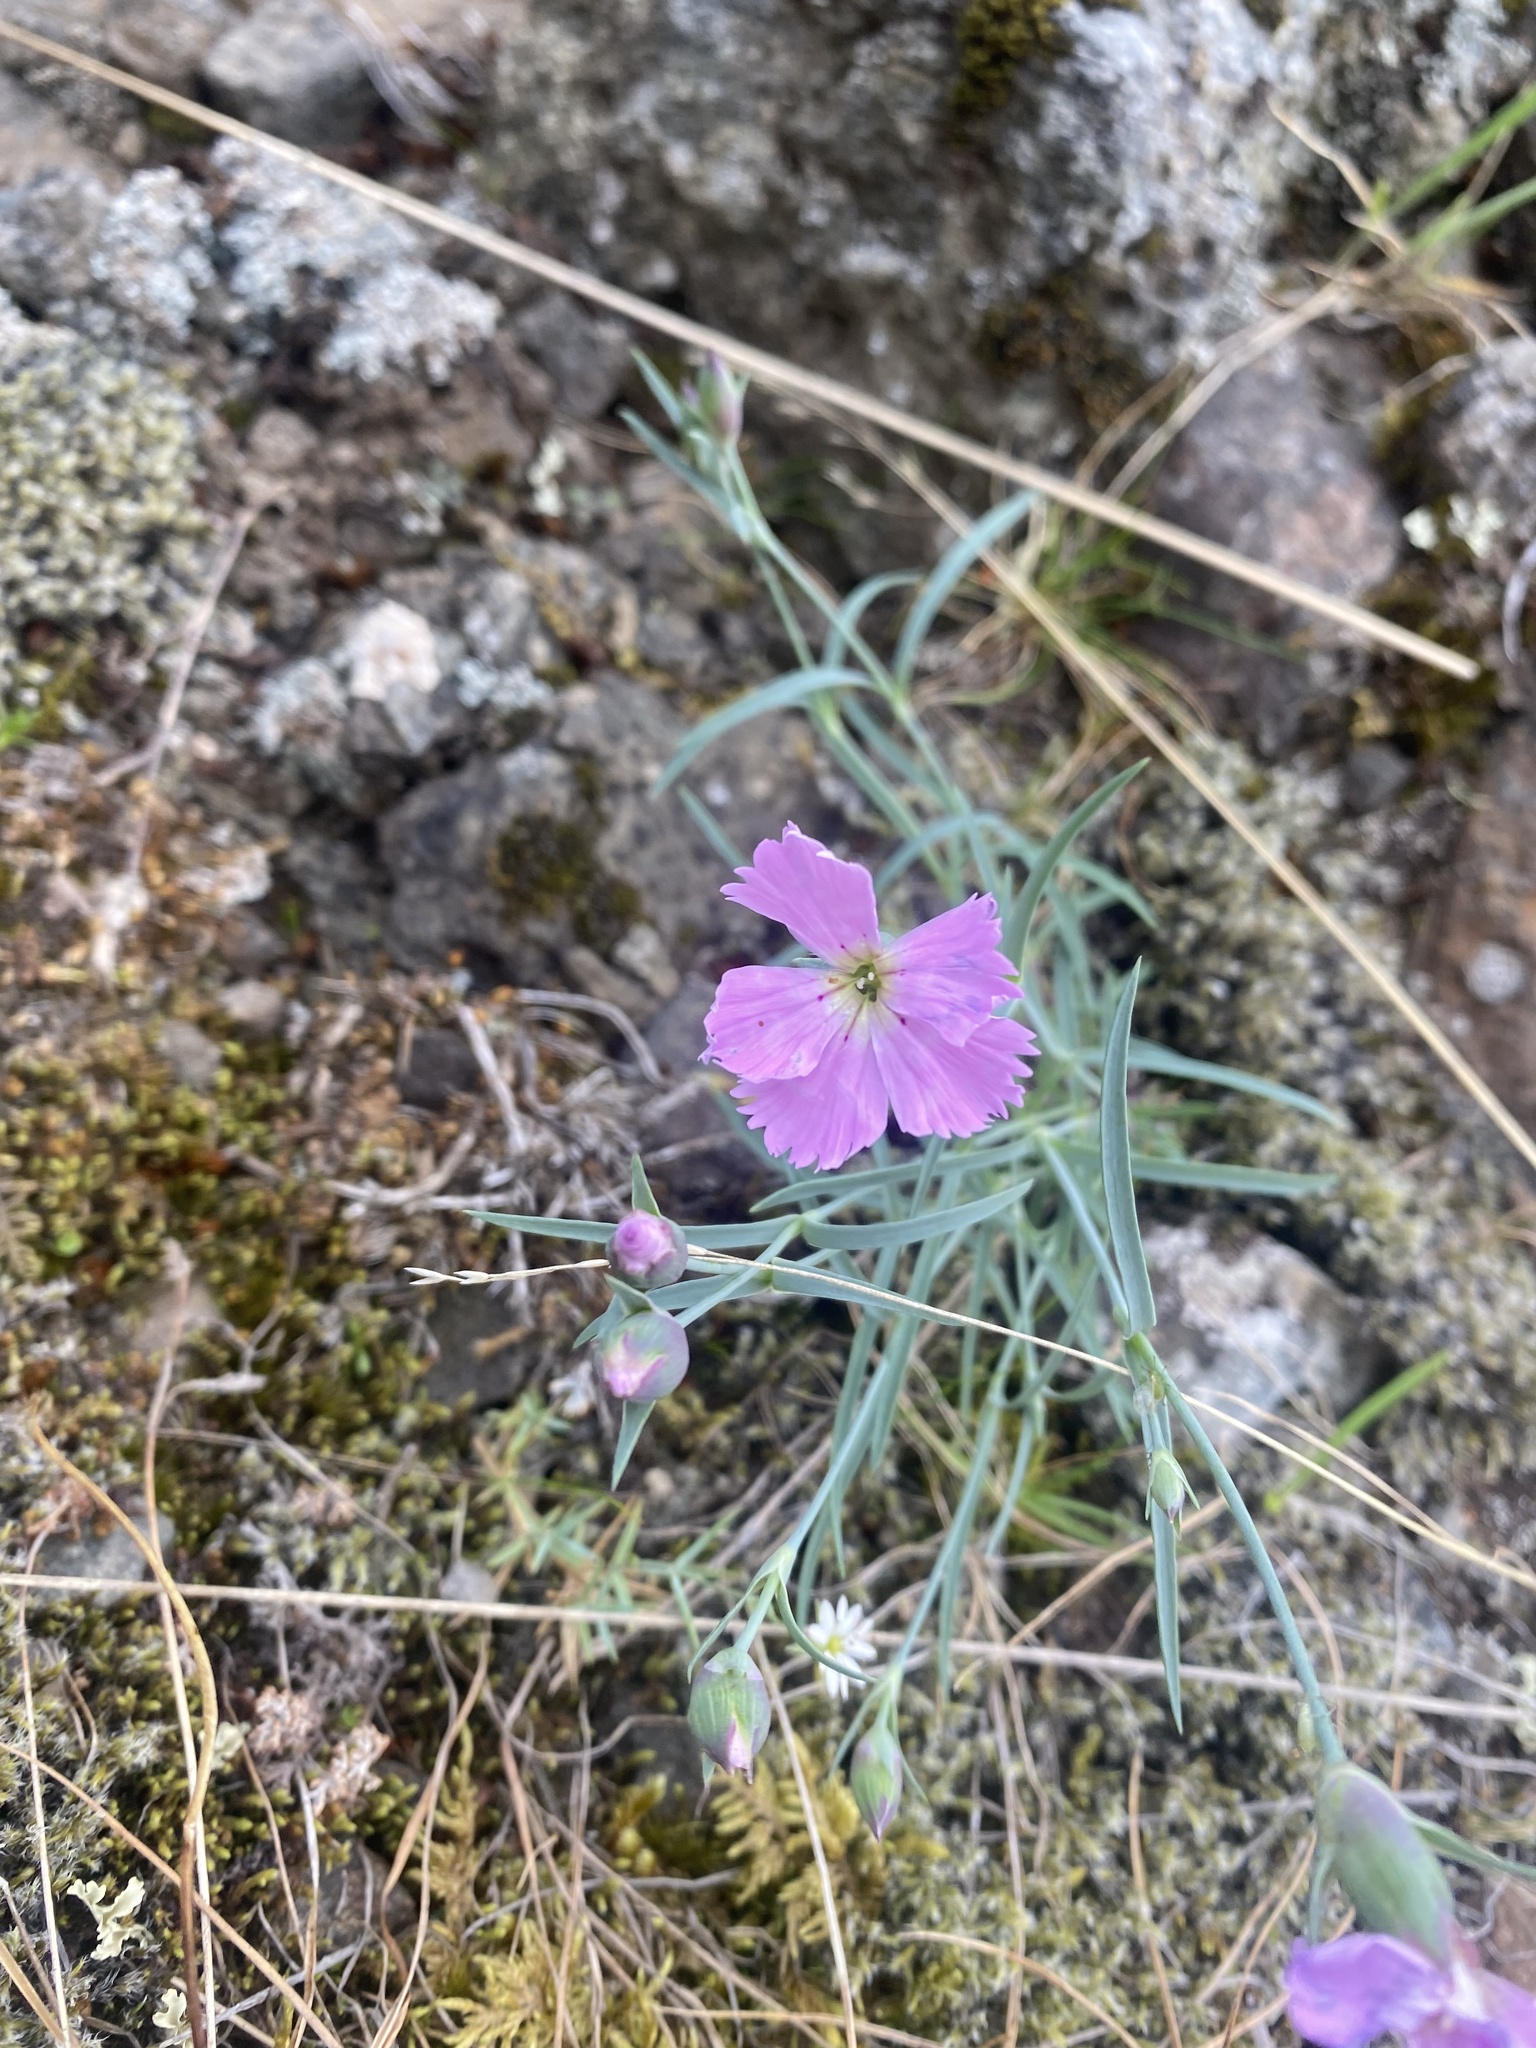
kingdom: Plantae
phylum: Tracheophyta
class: Magnoliopsida
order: Caryophyllales
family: Caryophyllaceae
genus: Dianthus
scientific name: Dianthus repens
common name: Northern pink
